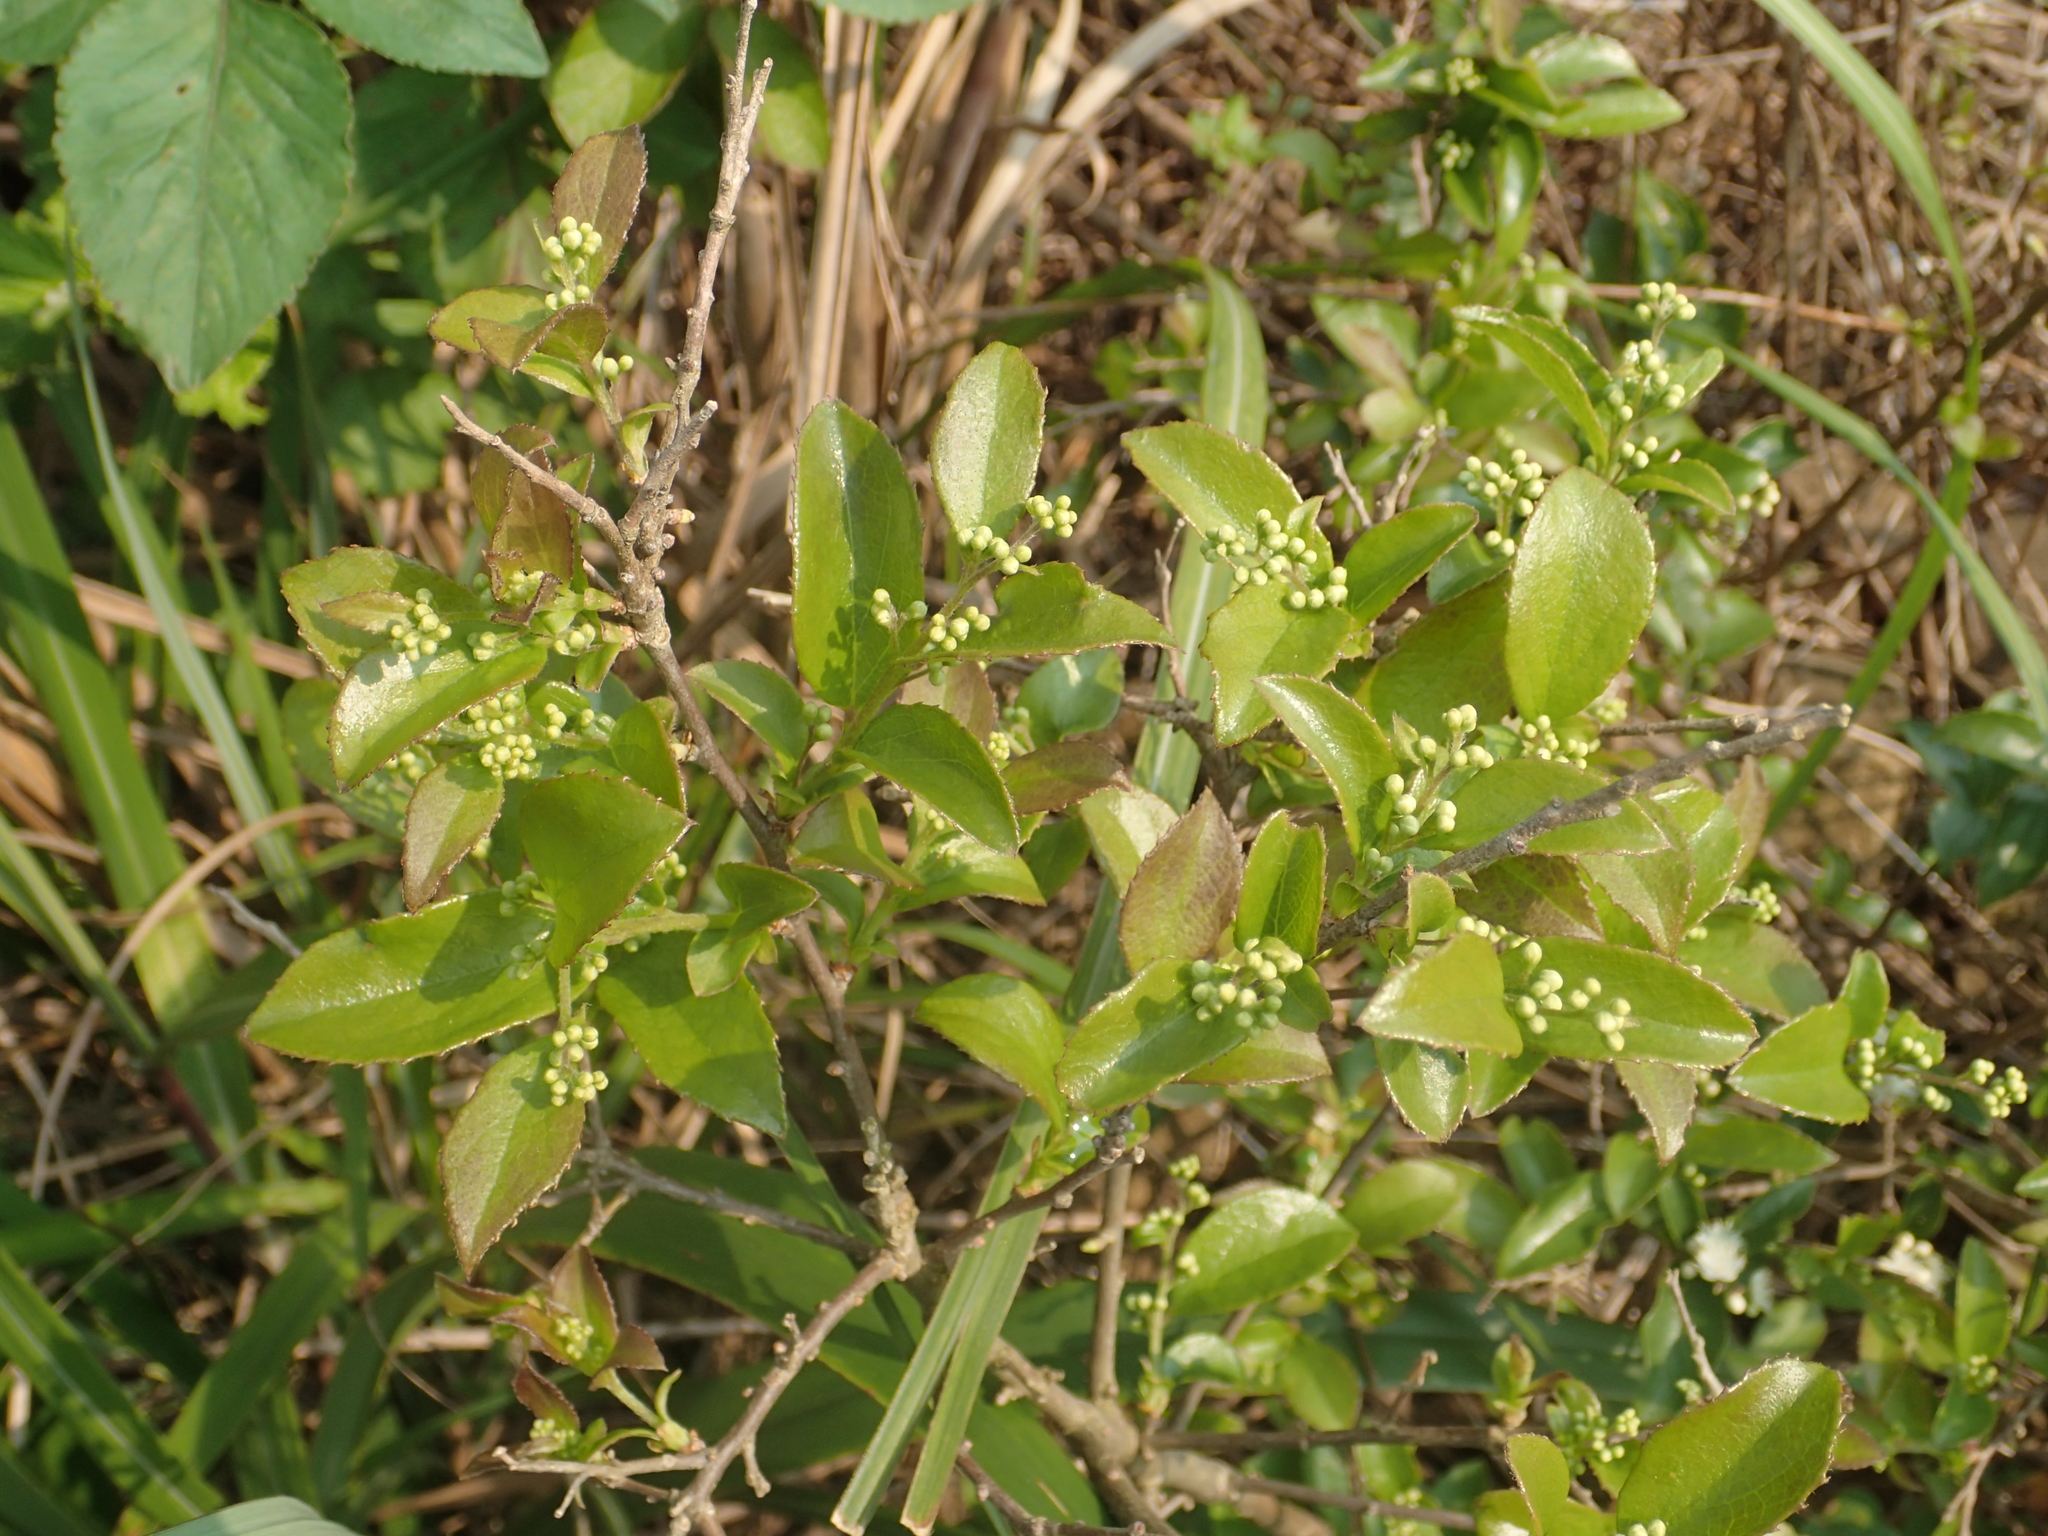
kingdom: Plantae
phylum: Tracheophyta
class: Magnoliopsida
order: Ericales
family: Symplocaceae
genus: Symplocos
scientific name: Symplocos paniculata
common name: Sapphire-berry
